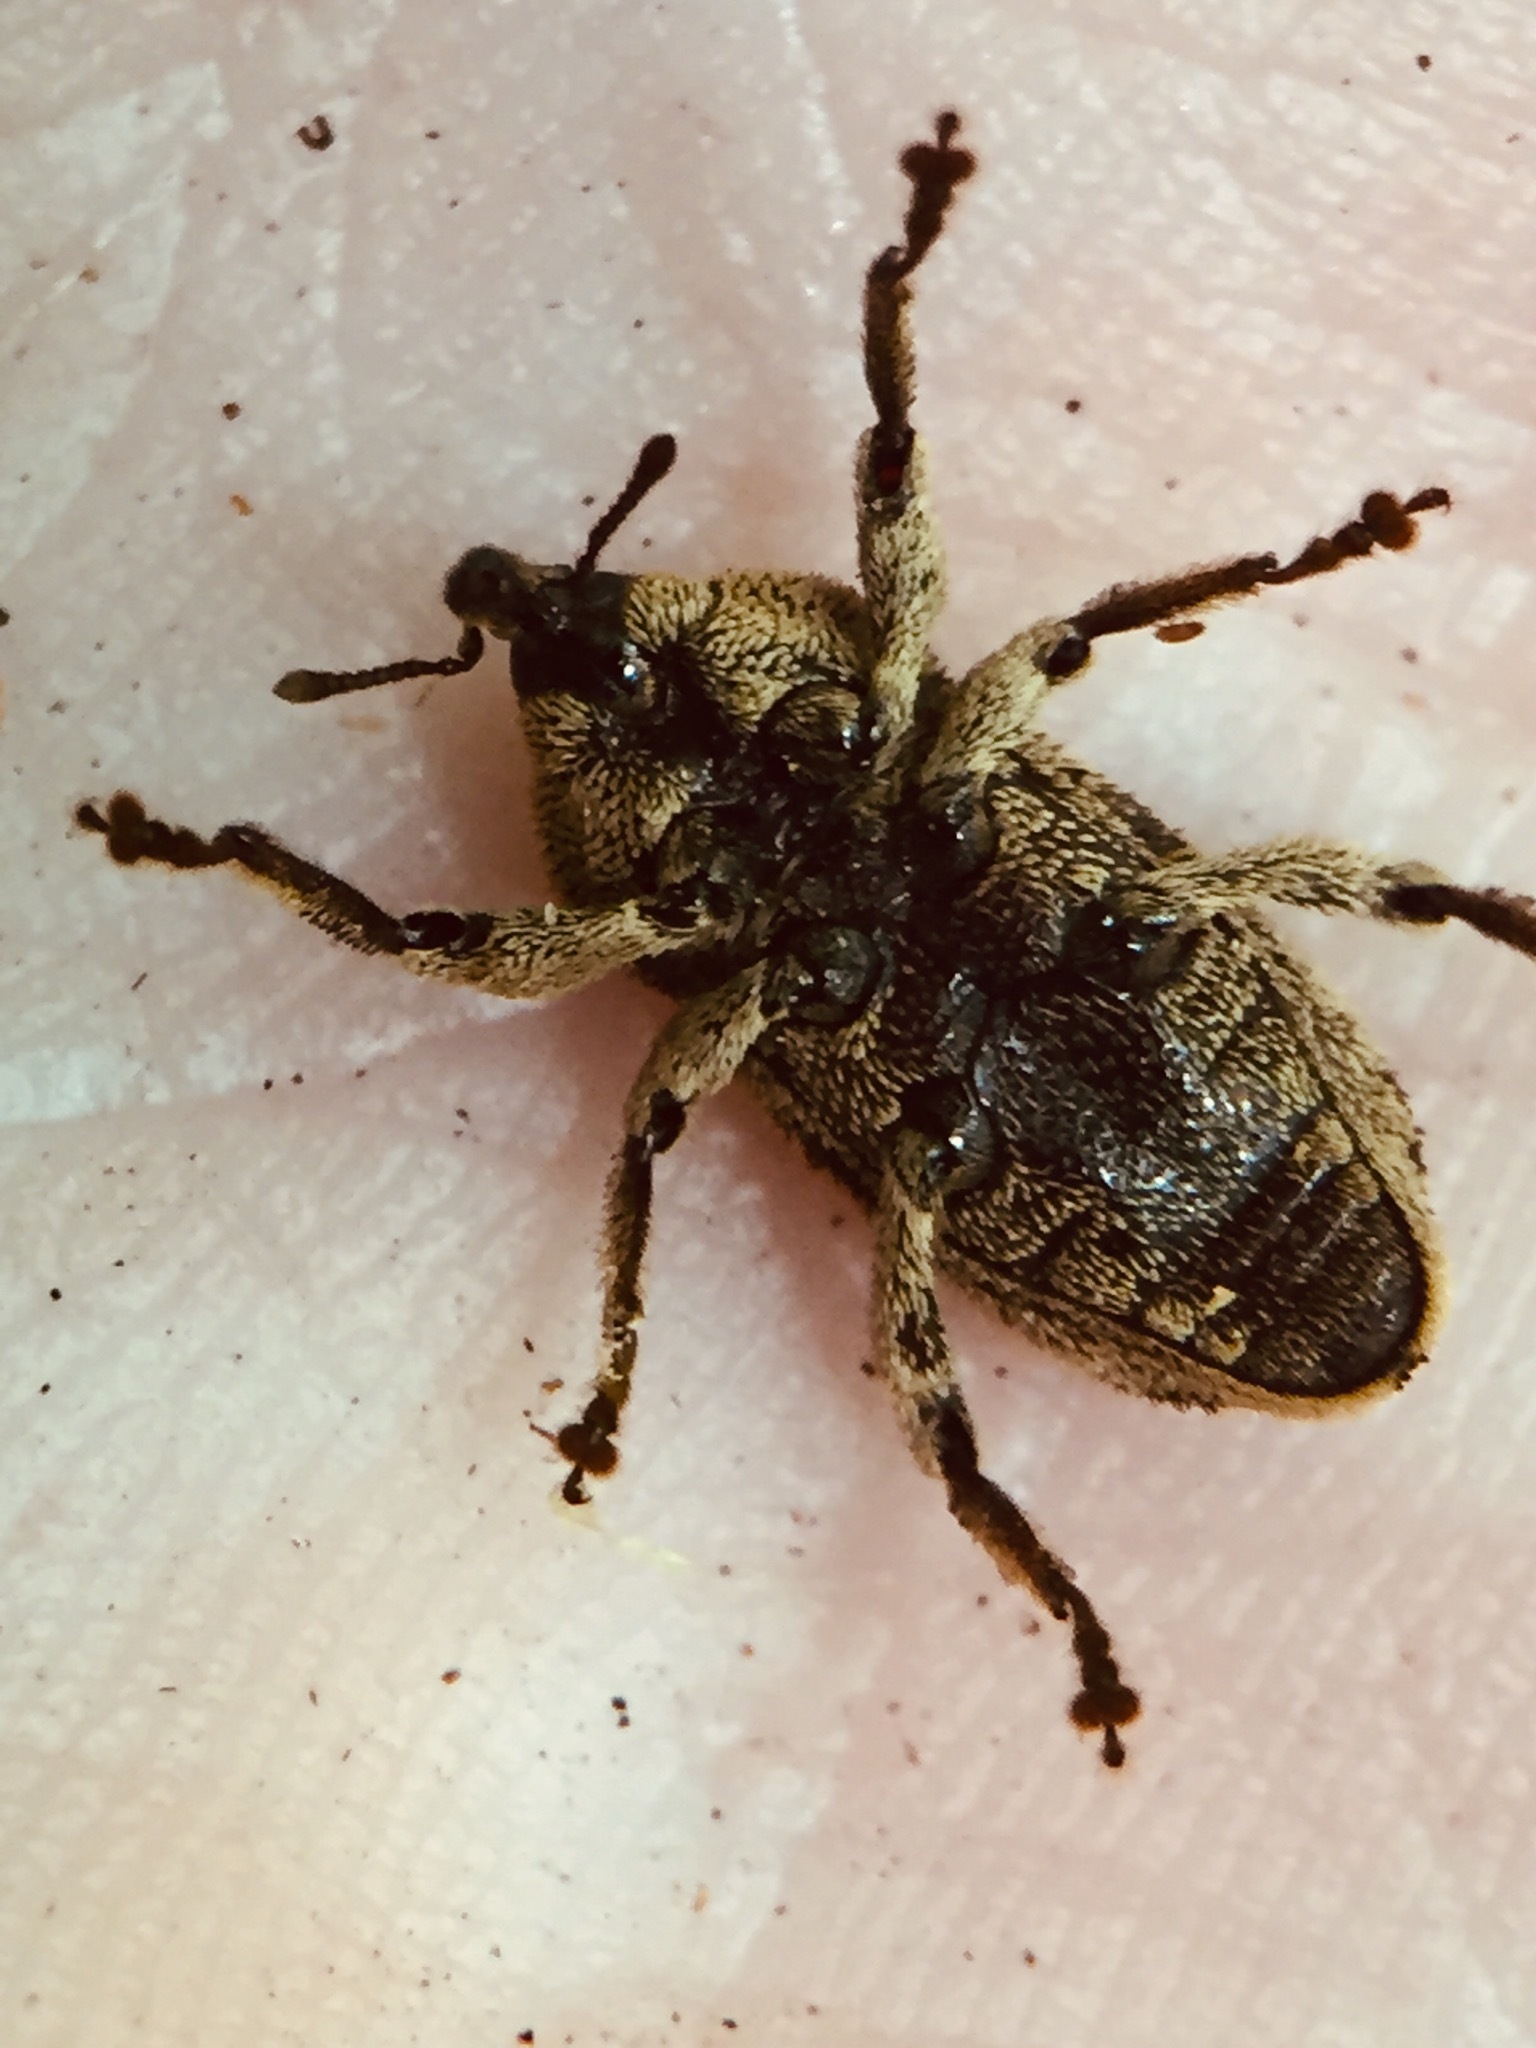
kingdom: Animalia
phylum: Arthropoda
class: Insecta
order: Coleoptera
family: Curculionidae
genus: Strongylopterus
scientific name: Strongylopterus hylopioides
